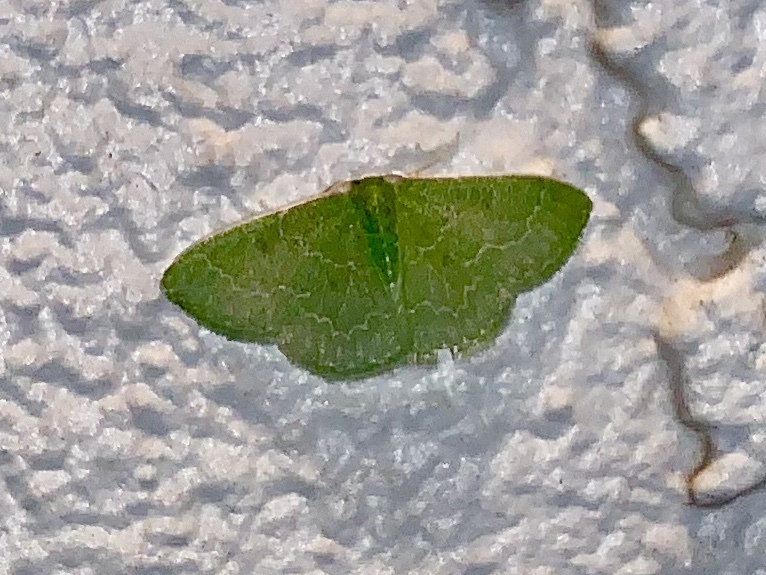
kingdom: Animalia
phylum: Arthropoda
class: Insecta
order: Lepidoptera
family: Geometridae
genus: Synchlora
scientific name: Synchlora frondaria
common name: Southern emerald
